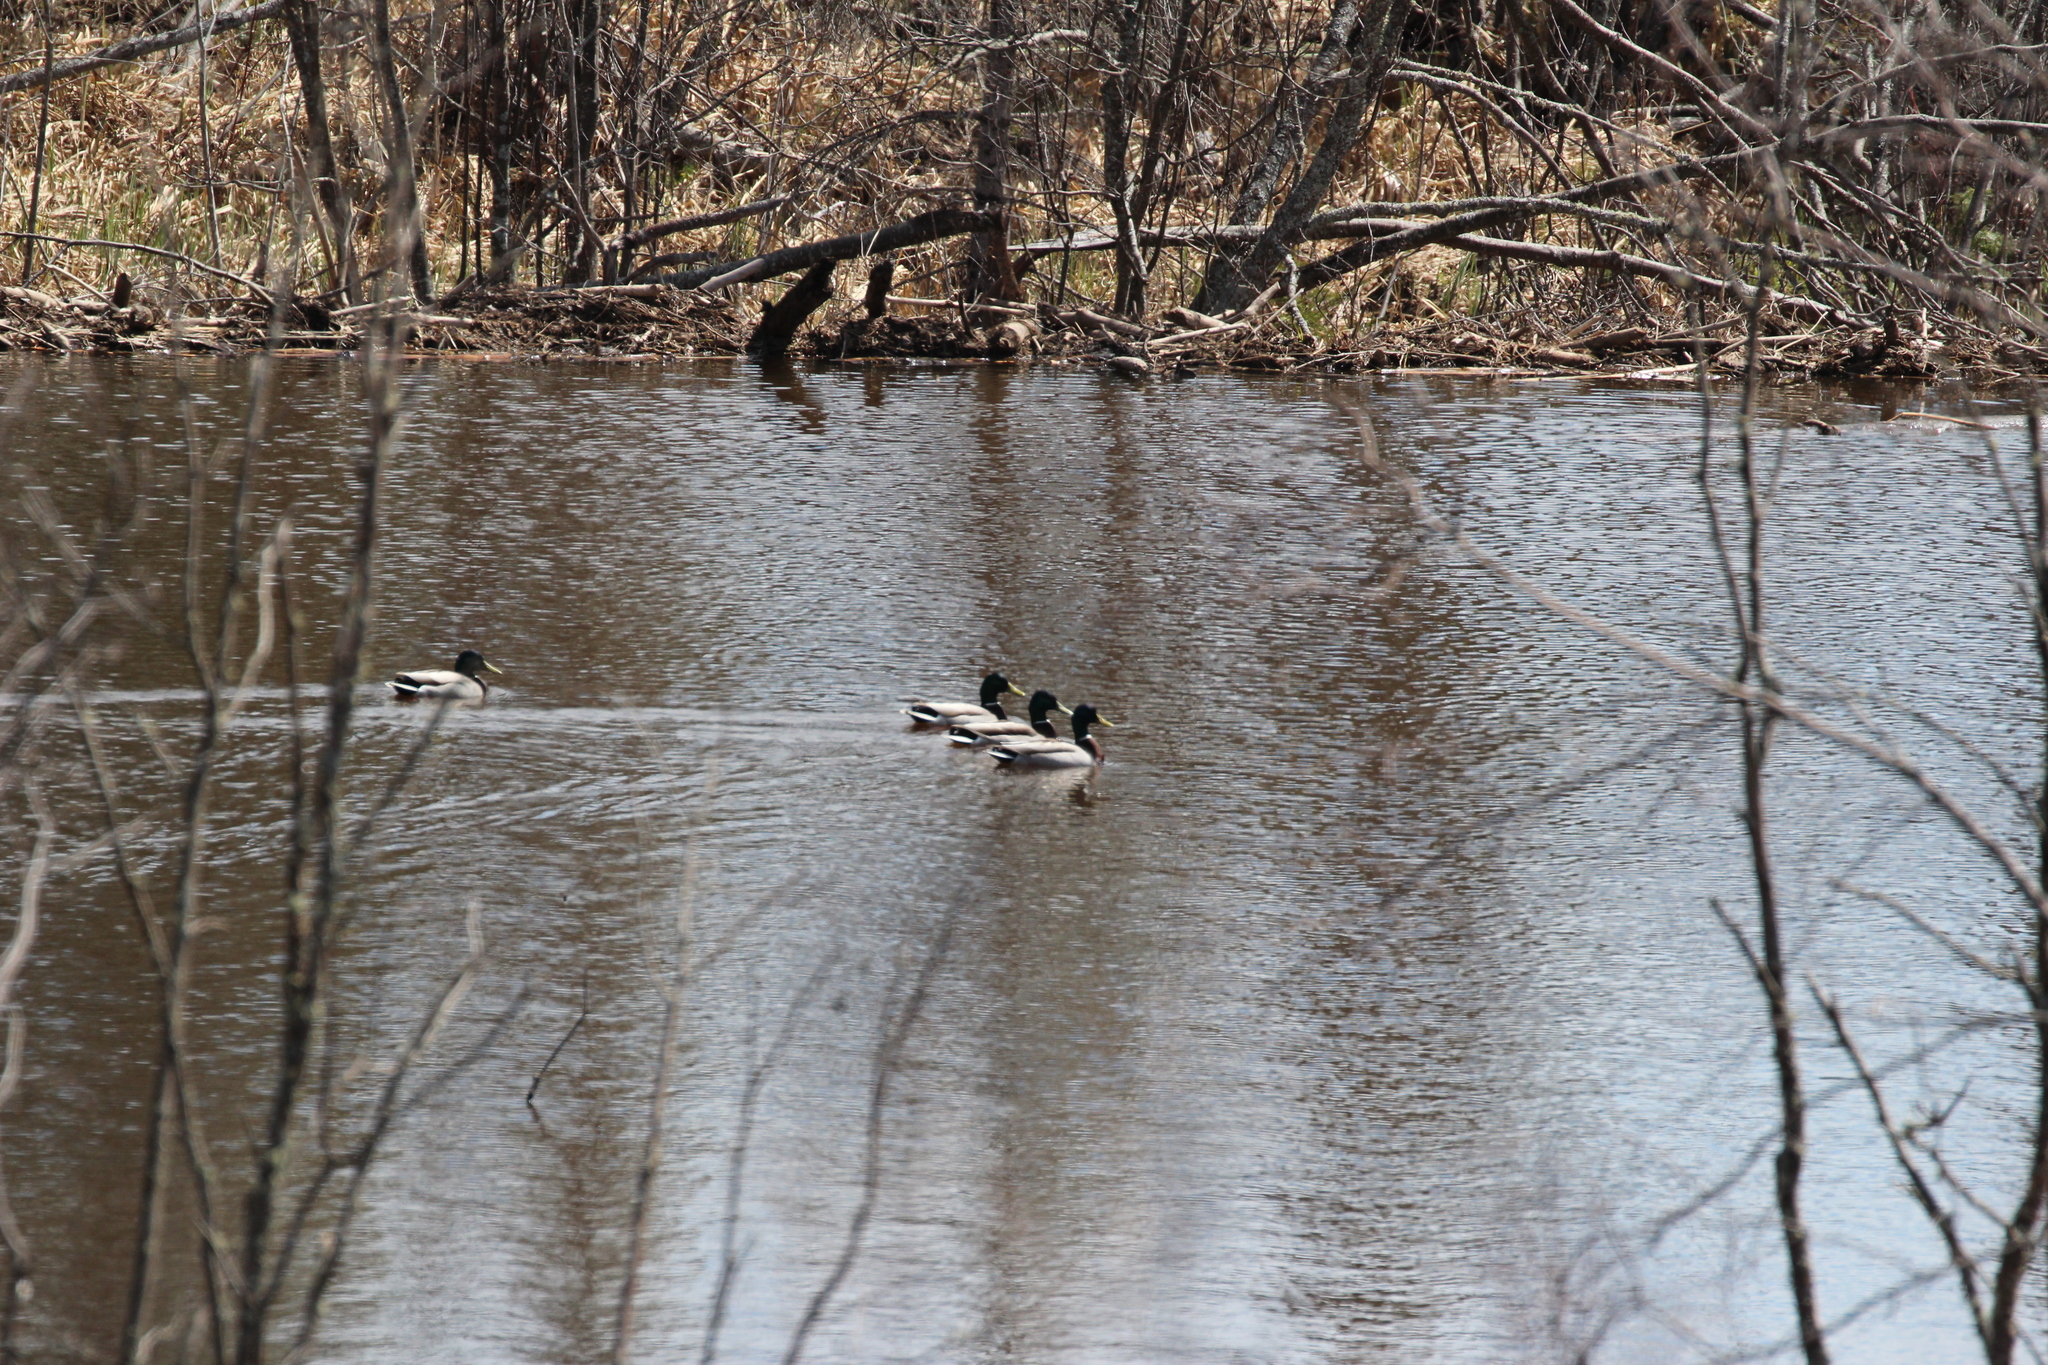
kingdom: Animalia
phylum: Chordata
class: Aves
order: Anseriformes
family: Anatidae
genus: Anas
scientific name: Anas platyrhynchos
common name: Mallard
